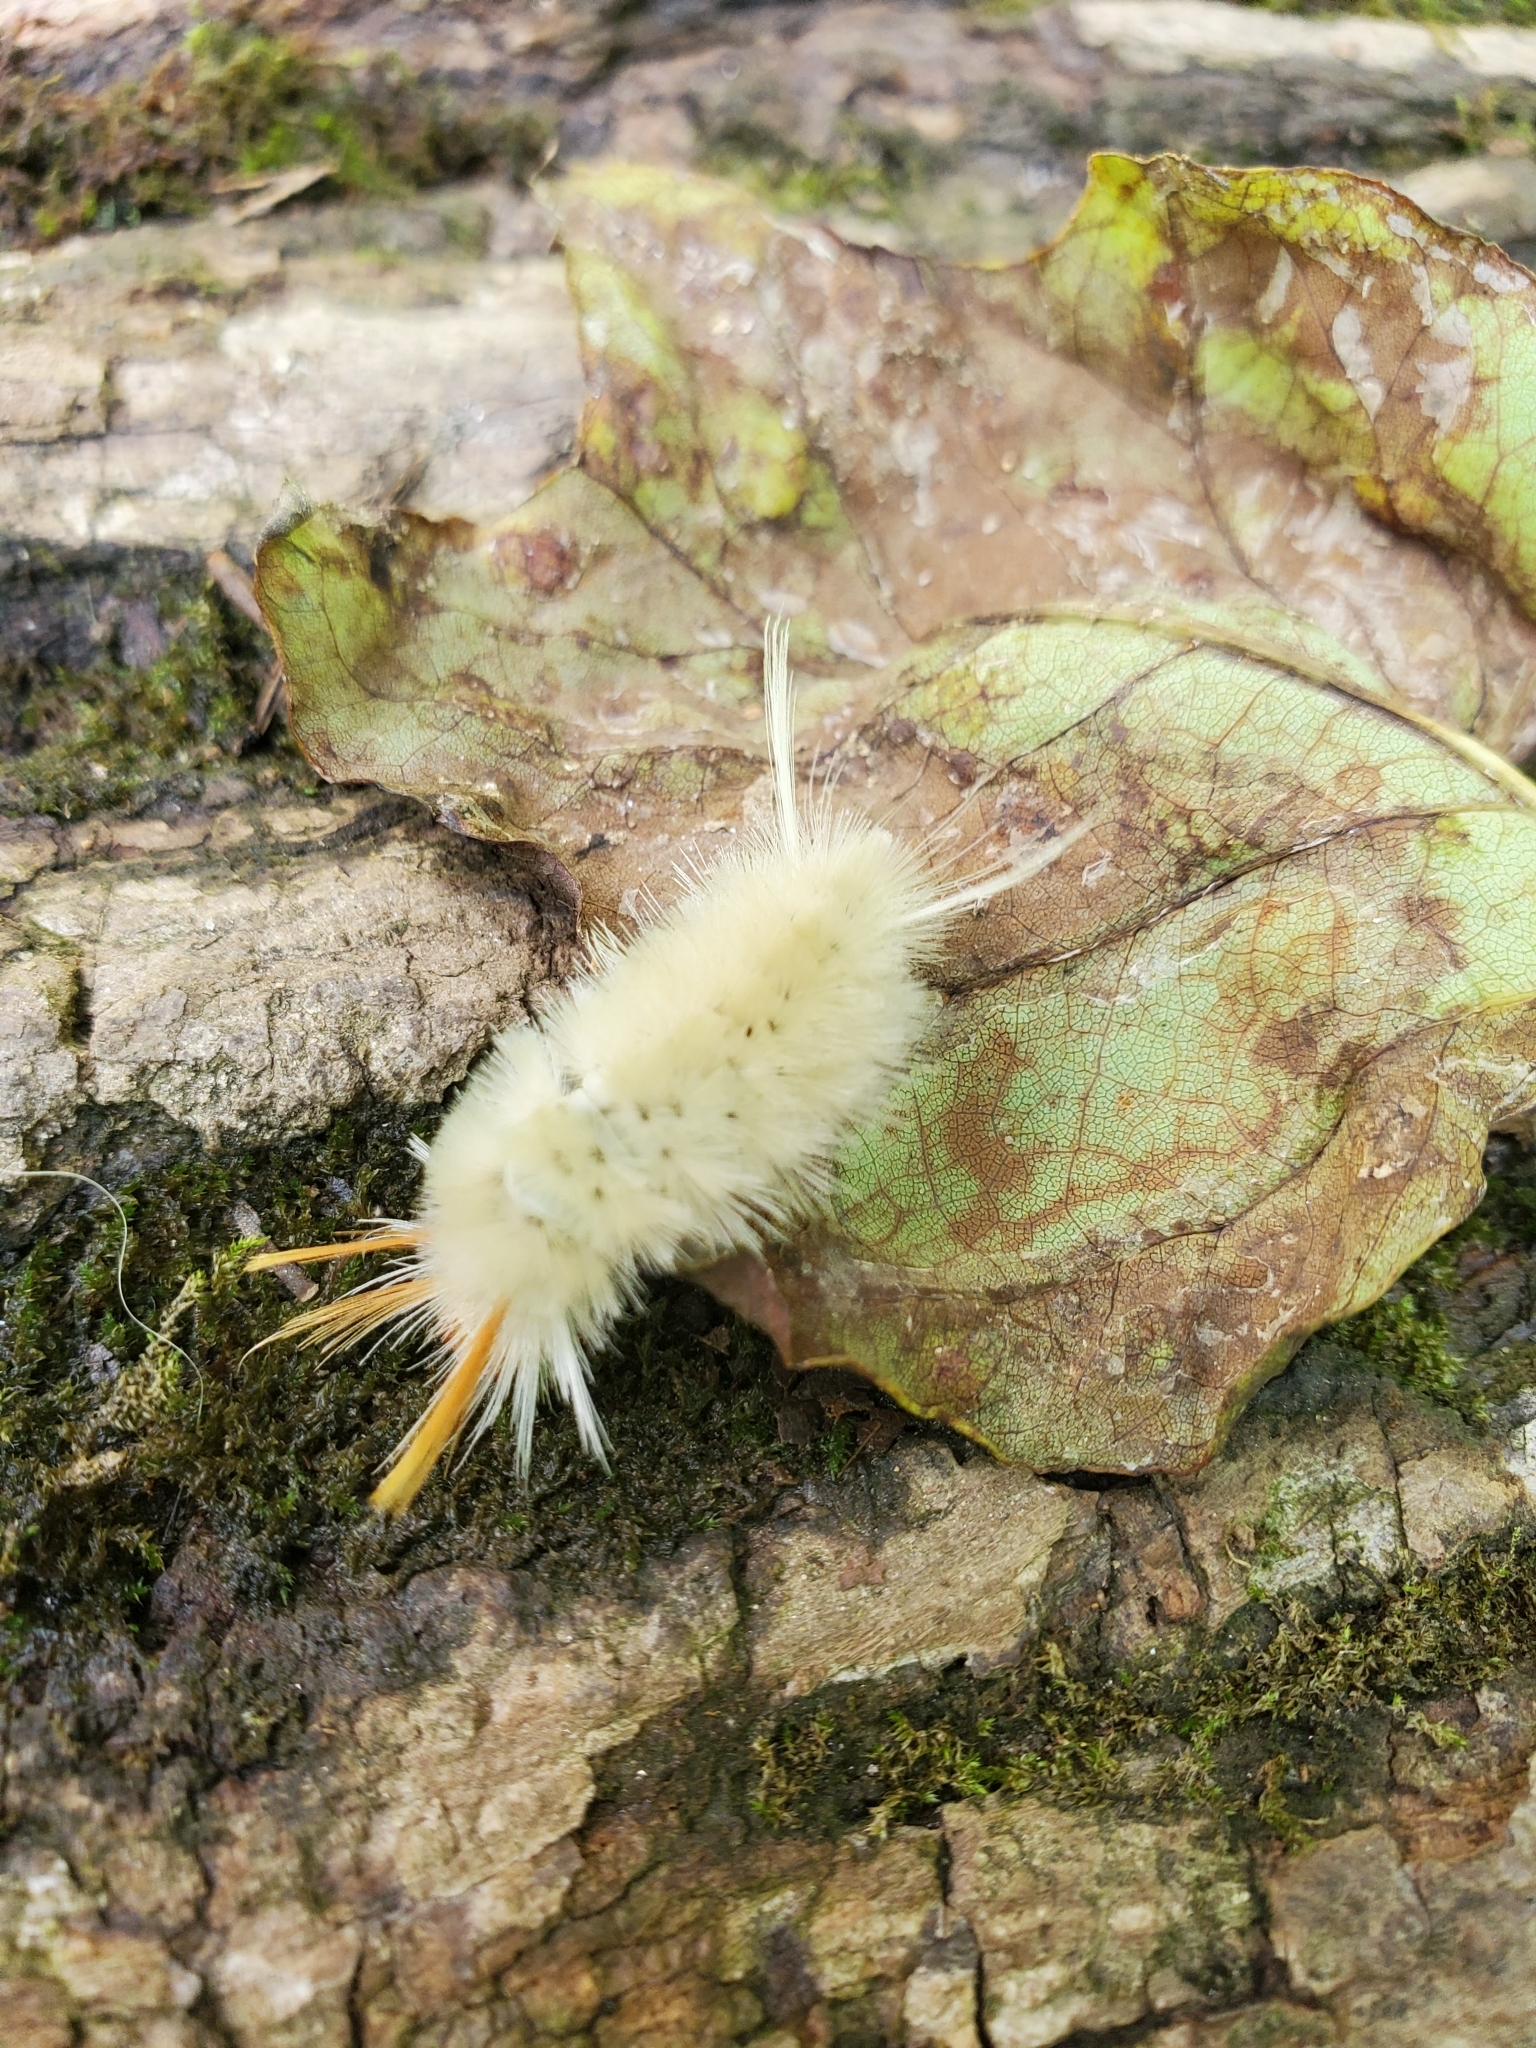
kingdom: Animalia
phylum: Arthropoda
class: Insecta
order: Lepidoptera
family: Erebidae
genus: Halysidota
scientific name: Halysidota harrisii
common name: Sycamore tussock moth
